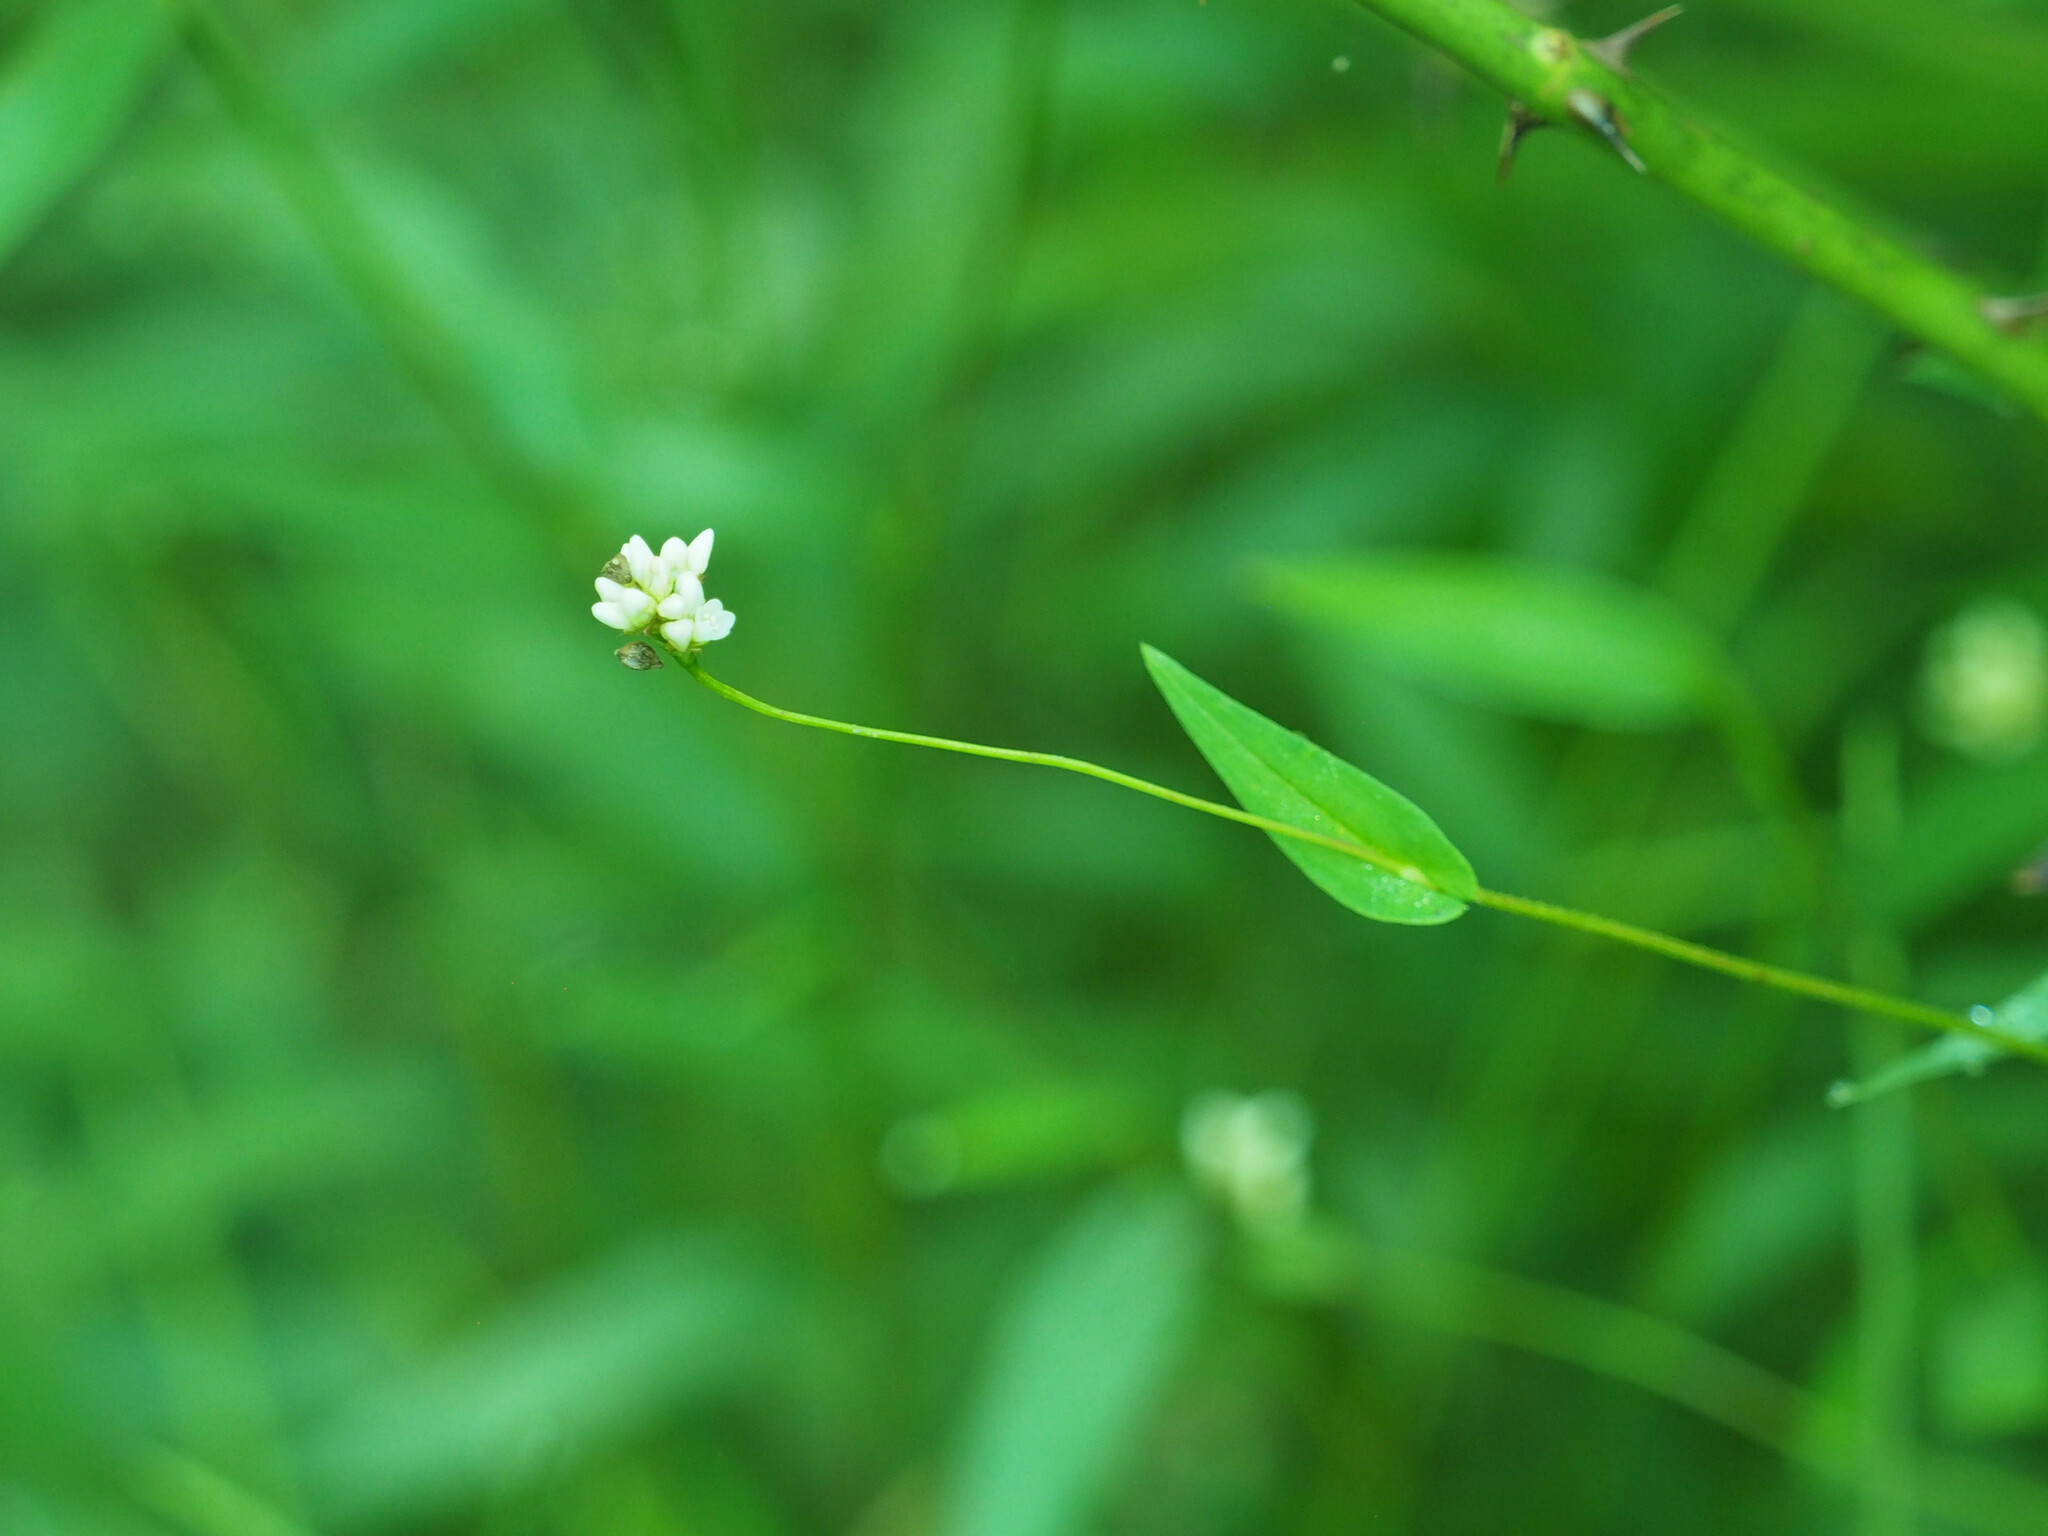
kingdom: Plantae
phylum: Tracheophyta
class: Magnoliopsida
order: Caryophyllales
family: Polygonaceae
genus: Persicaria
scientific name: Persicaria sagittata
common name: American tearthumb
